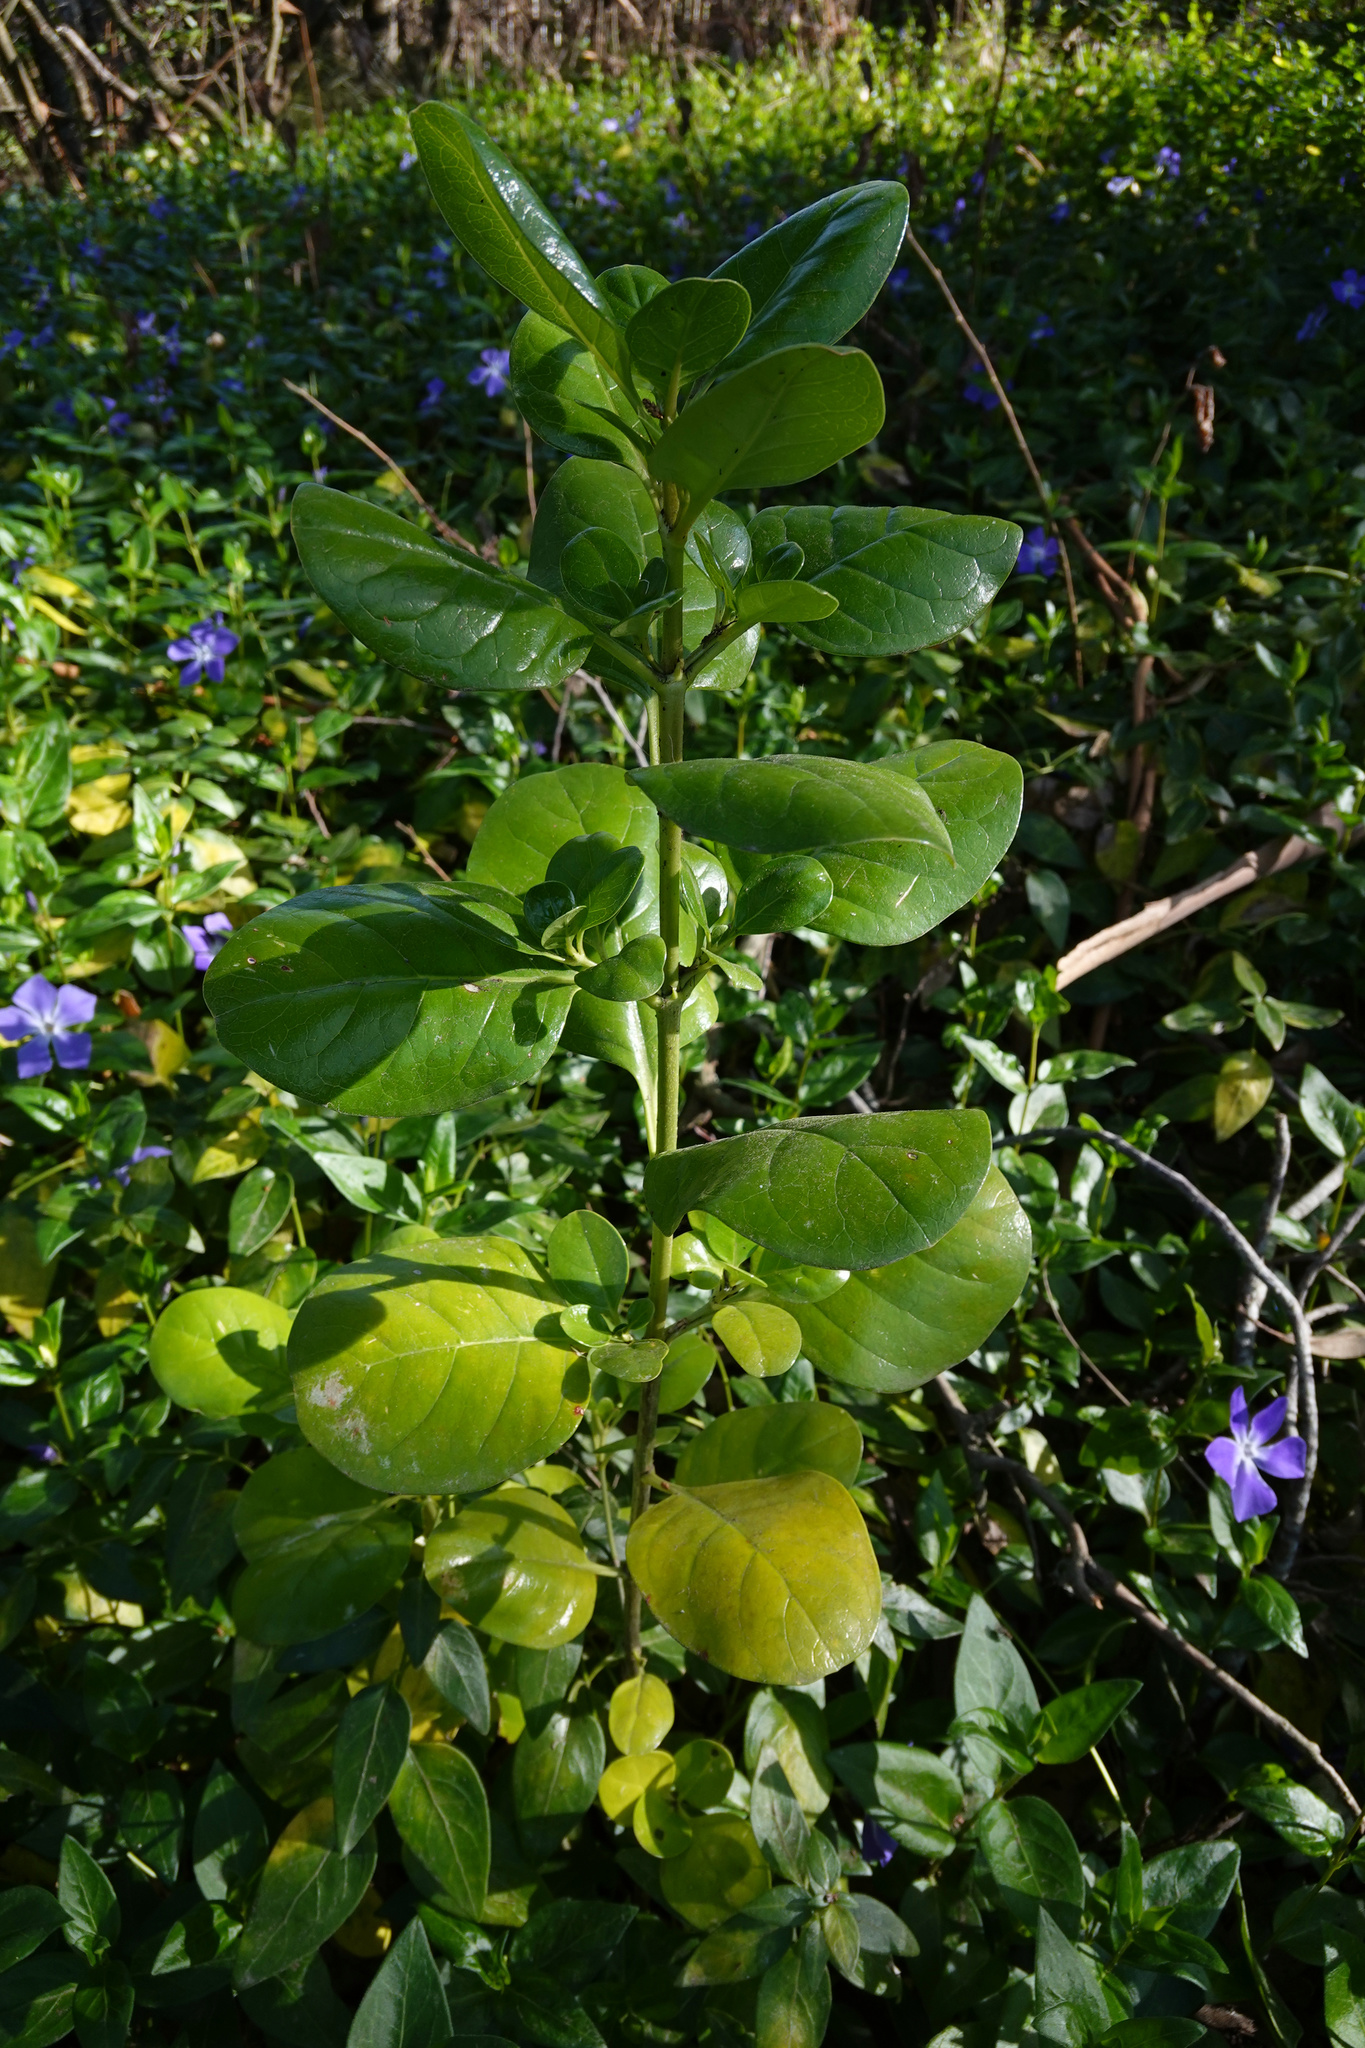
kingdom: Plantae
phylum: Tracheophyta
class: Magnoliopsida
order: Gentianales
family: Rubiaceae
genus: Coprosma
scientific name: Coprosma repens
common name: Tree bedstraw
